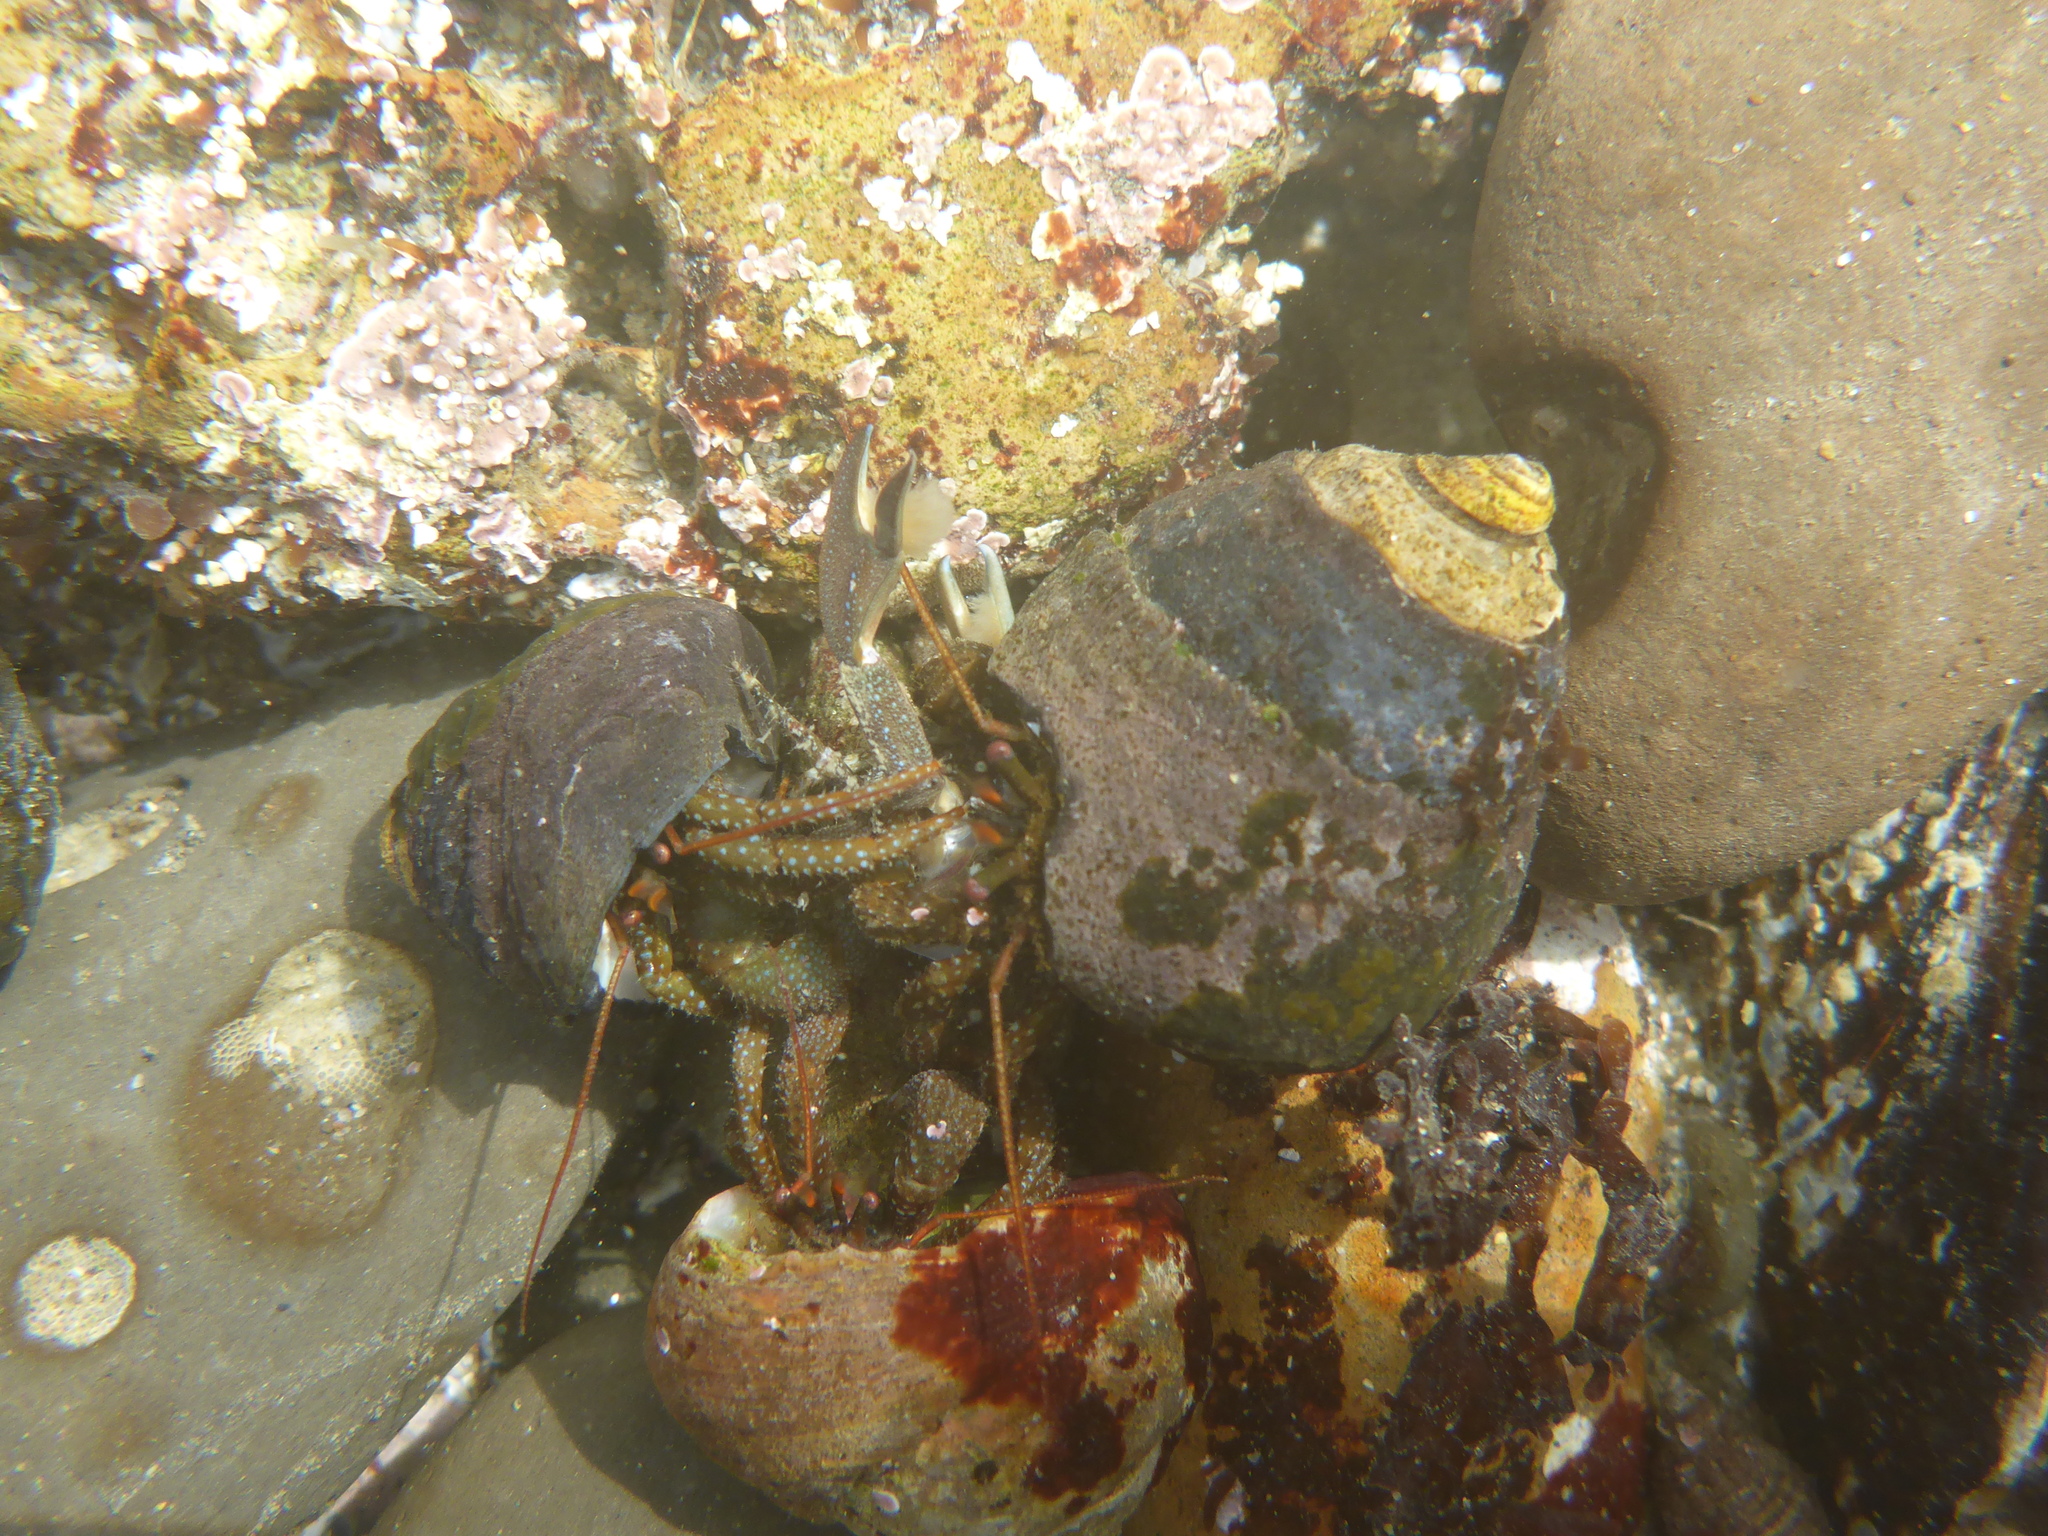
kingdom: Animalia
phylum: Arthropoda
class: Malacostraca
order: Decapoda
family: Paguridae
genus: Pagurus
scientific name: Pagurus granosimanus
